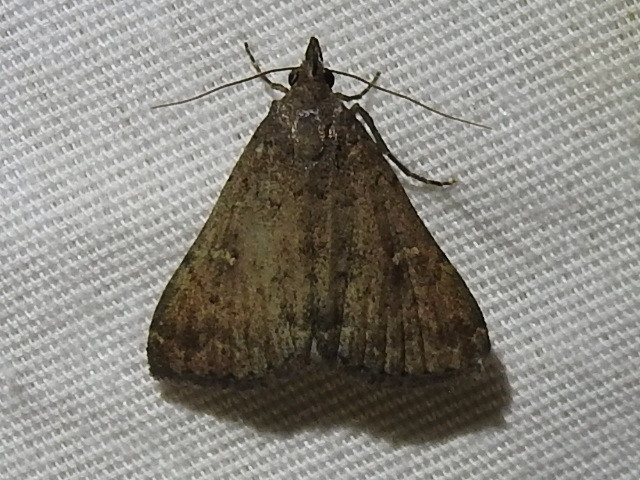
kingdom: Animalia
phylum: Arthropoda
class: Insecta
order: Lepidoptera
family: Erebidae
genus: Tetanolita
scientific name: Tetanolita mynesalis
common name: Smoky tetanolita moth
